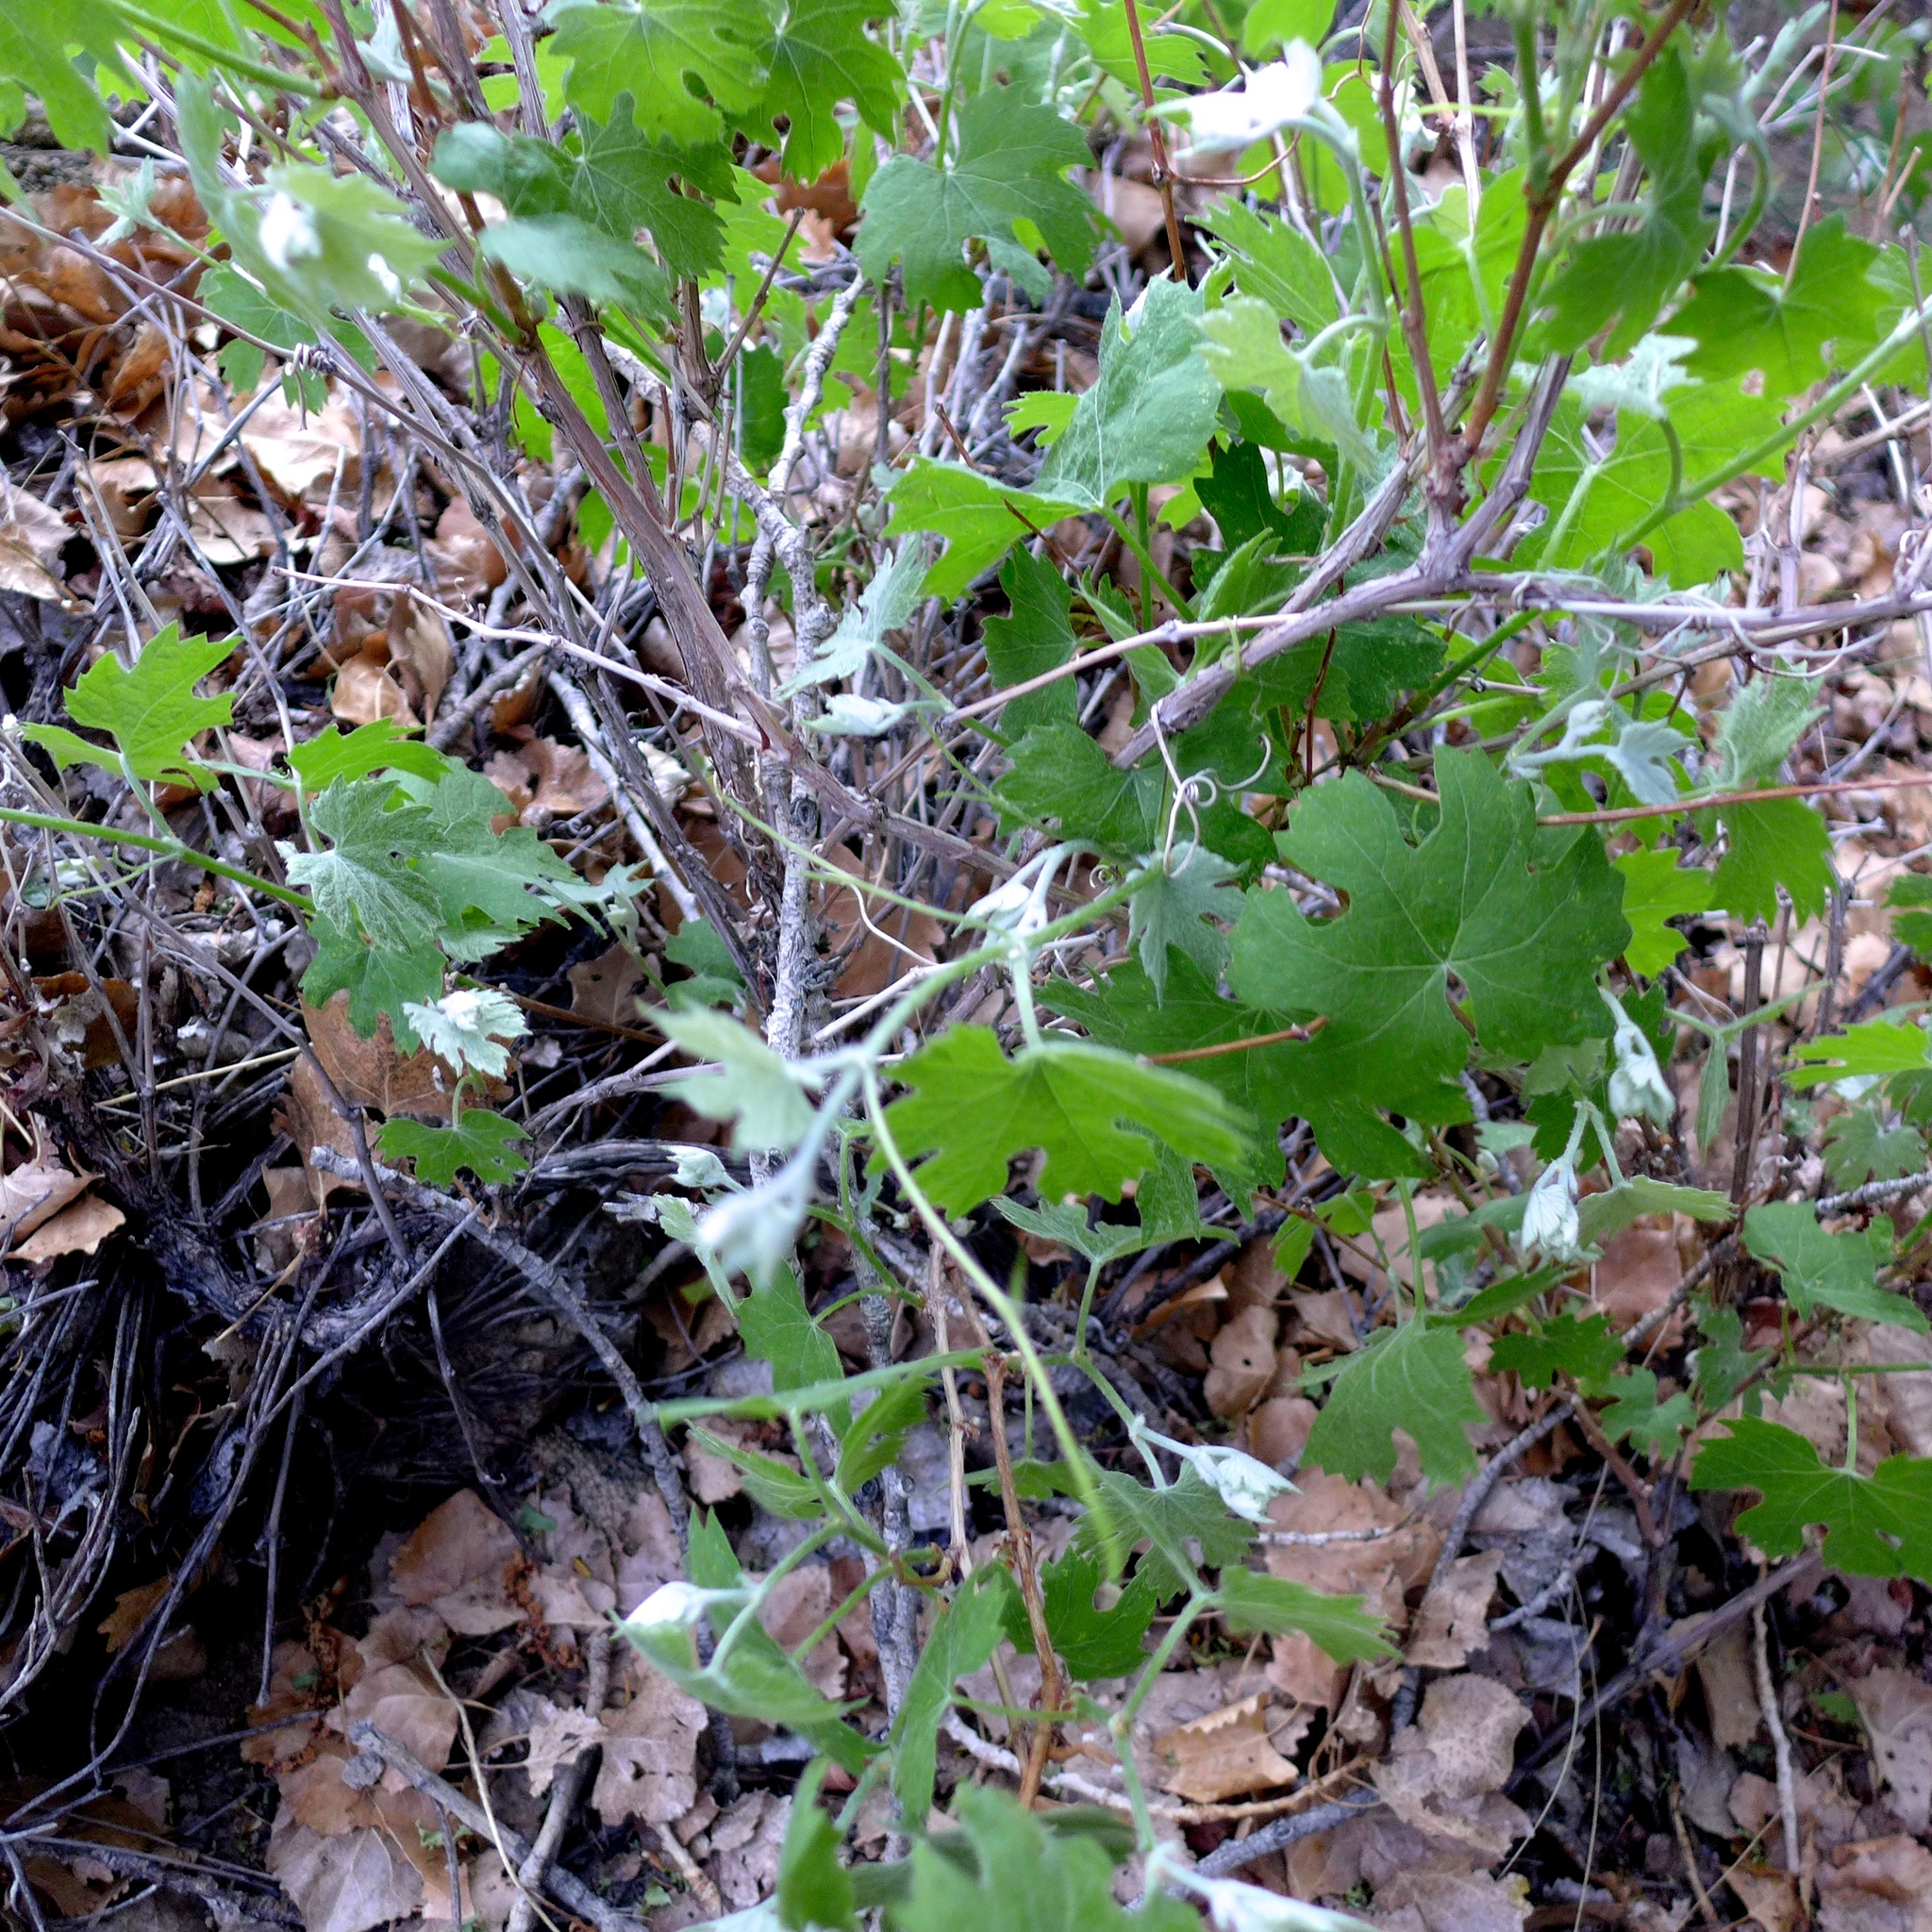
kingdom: Plantae
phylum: Tracheophyta
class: Magnoliopsida
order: Vitales
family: Vitaceae
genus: Vitis
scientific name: Vitis girdiana
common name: Desert wild grape
